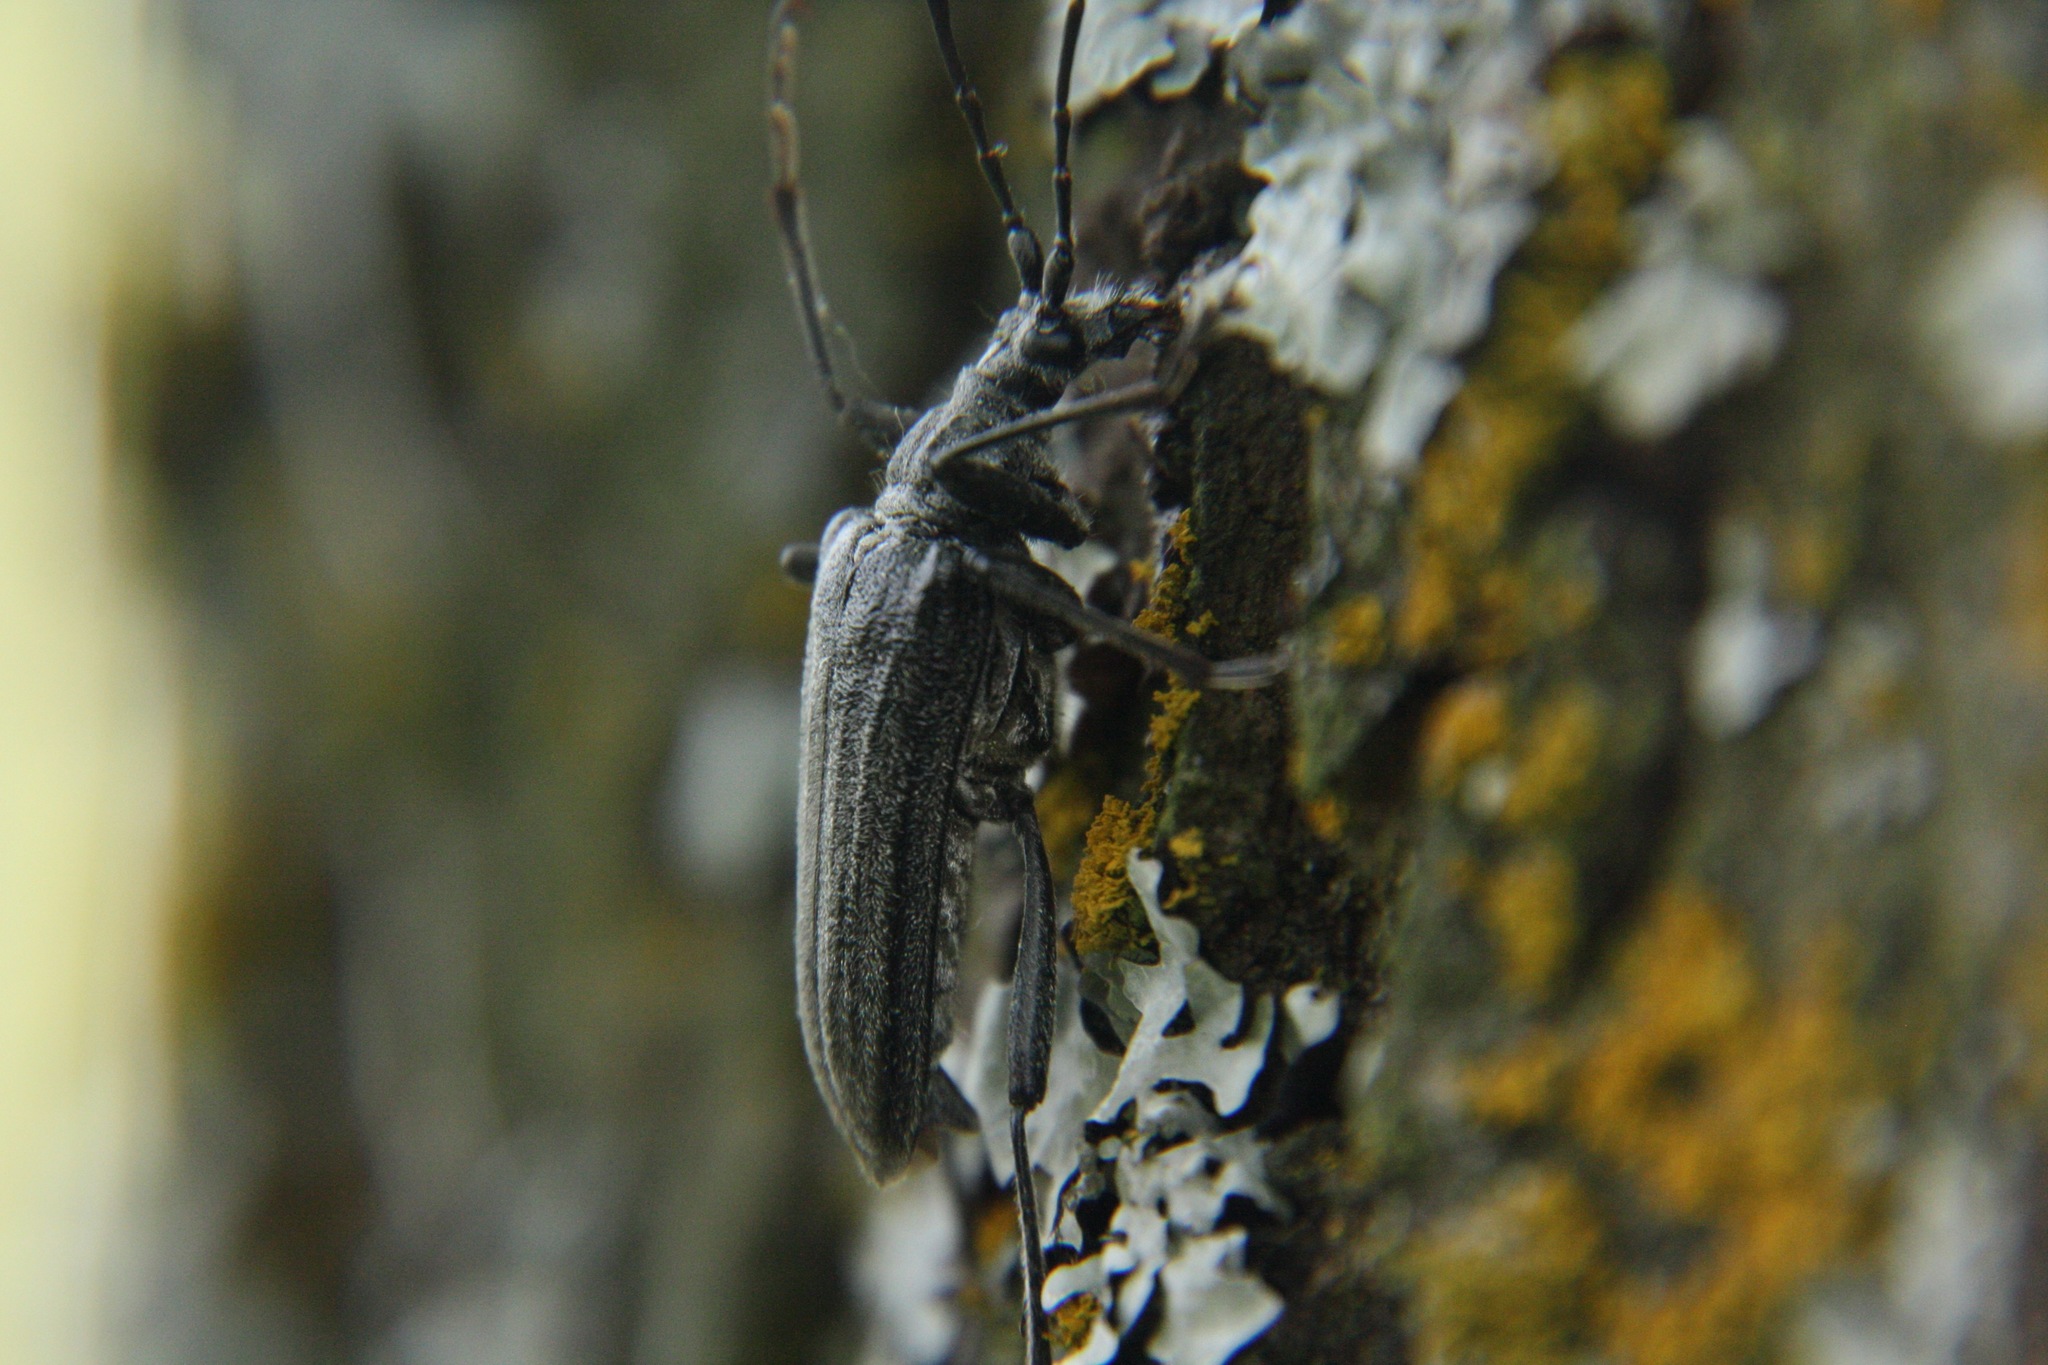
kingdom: Animalia
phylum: Arthropoda
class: Insecta
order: Coleoptera
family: Cerambycidae
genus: Oxymirus
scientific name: Oxymirus cursor
